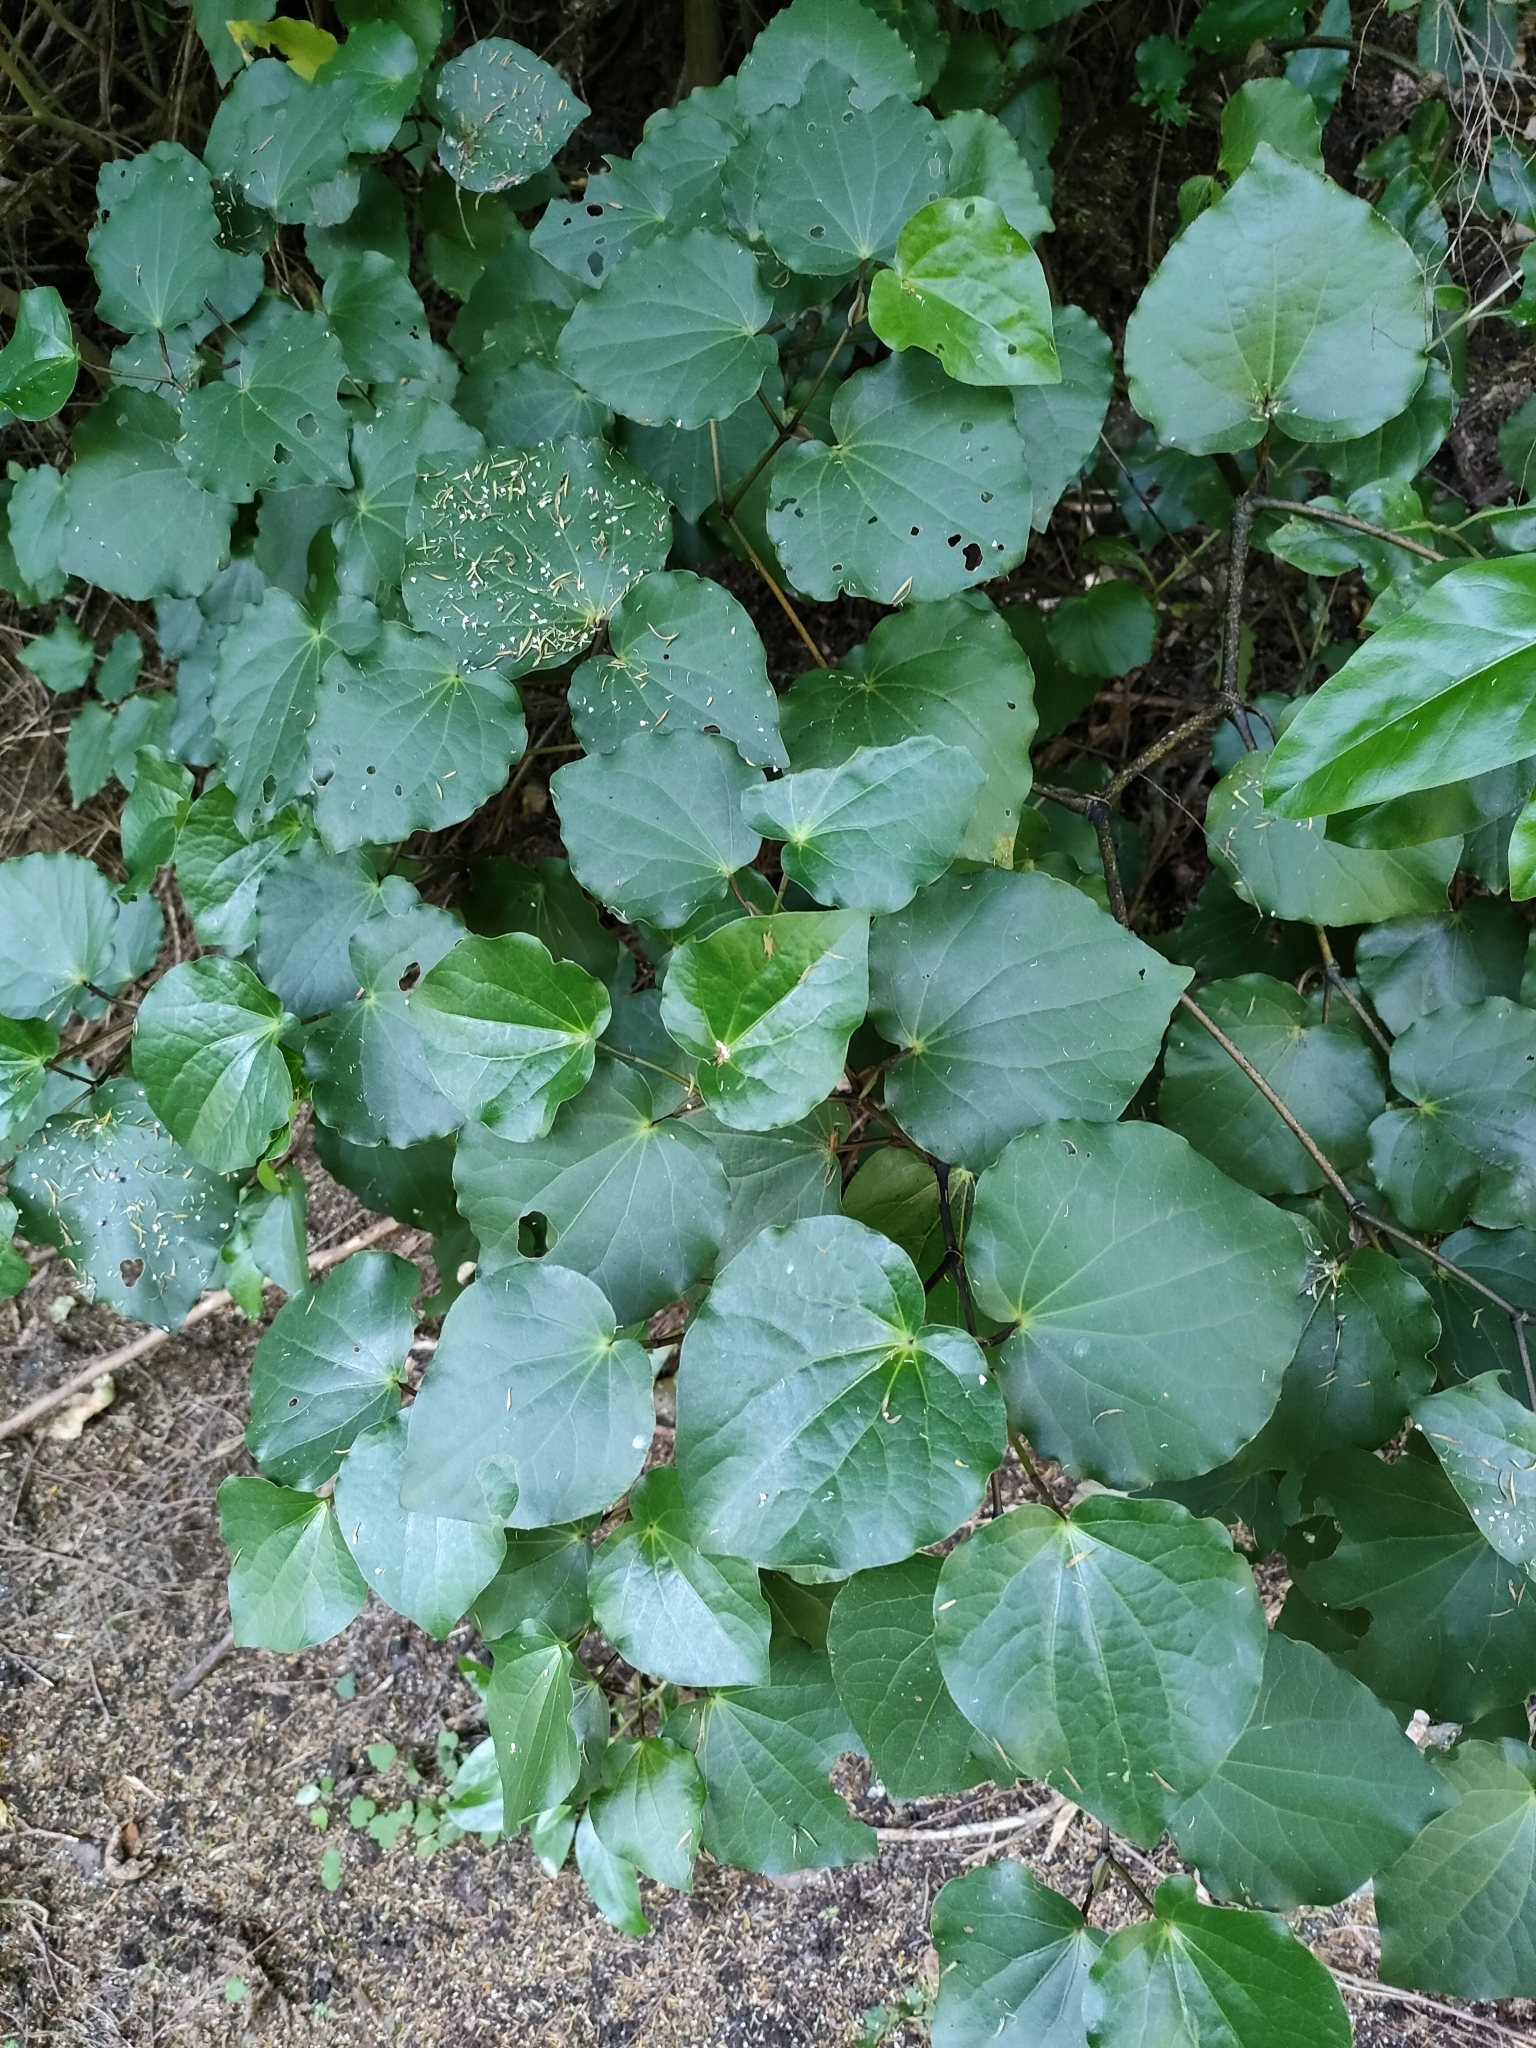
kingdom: Plantae
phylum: Tracheophyta
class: Magnoliopsida
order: Piperales
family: Piperaceae
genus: Macropiper
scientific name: Macropiper excelsum
